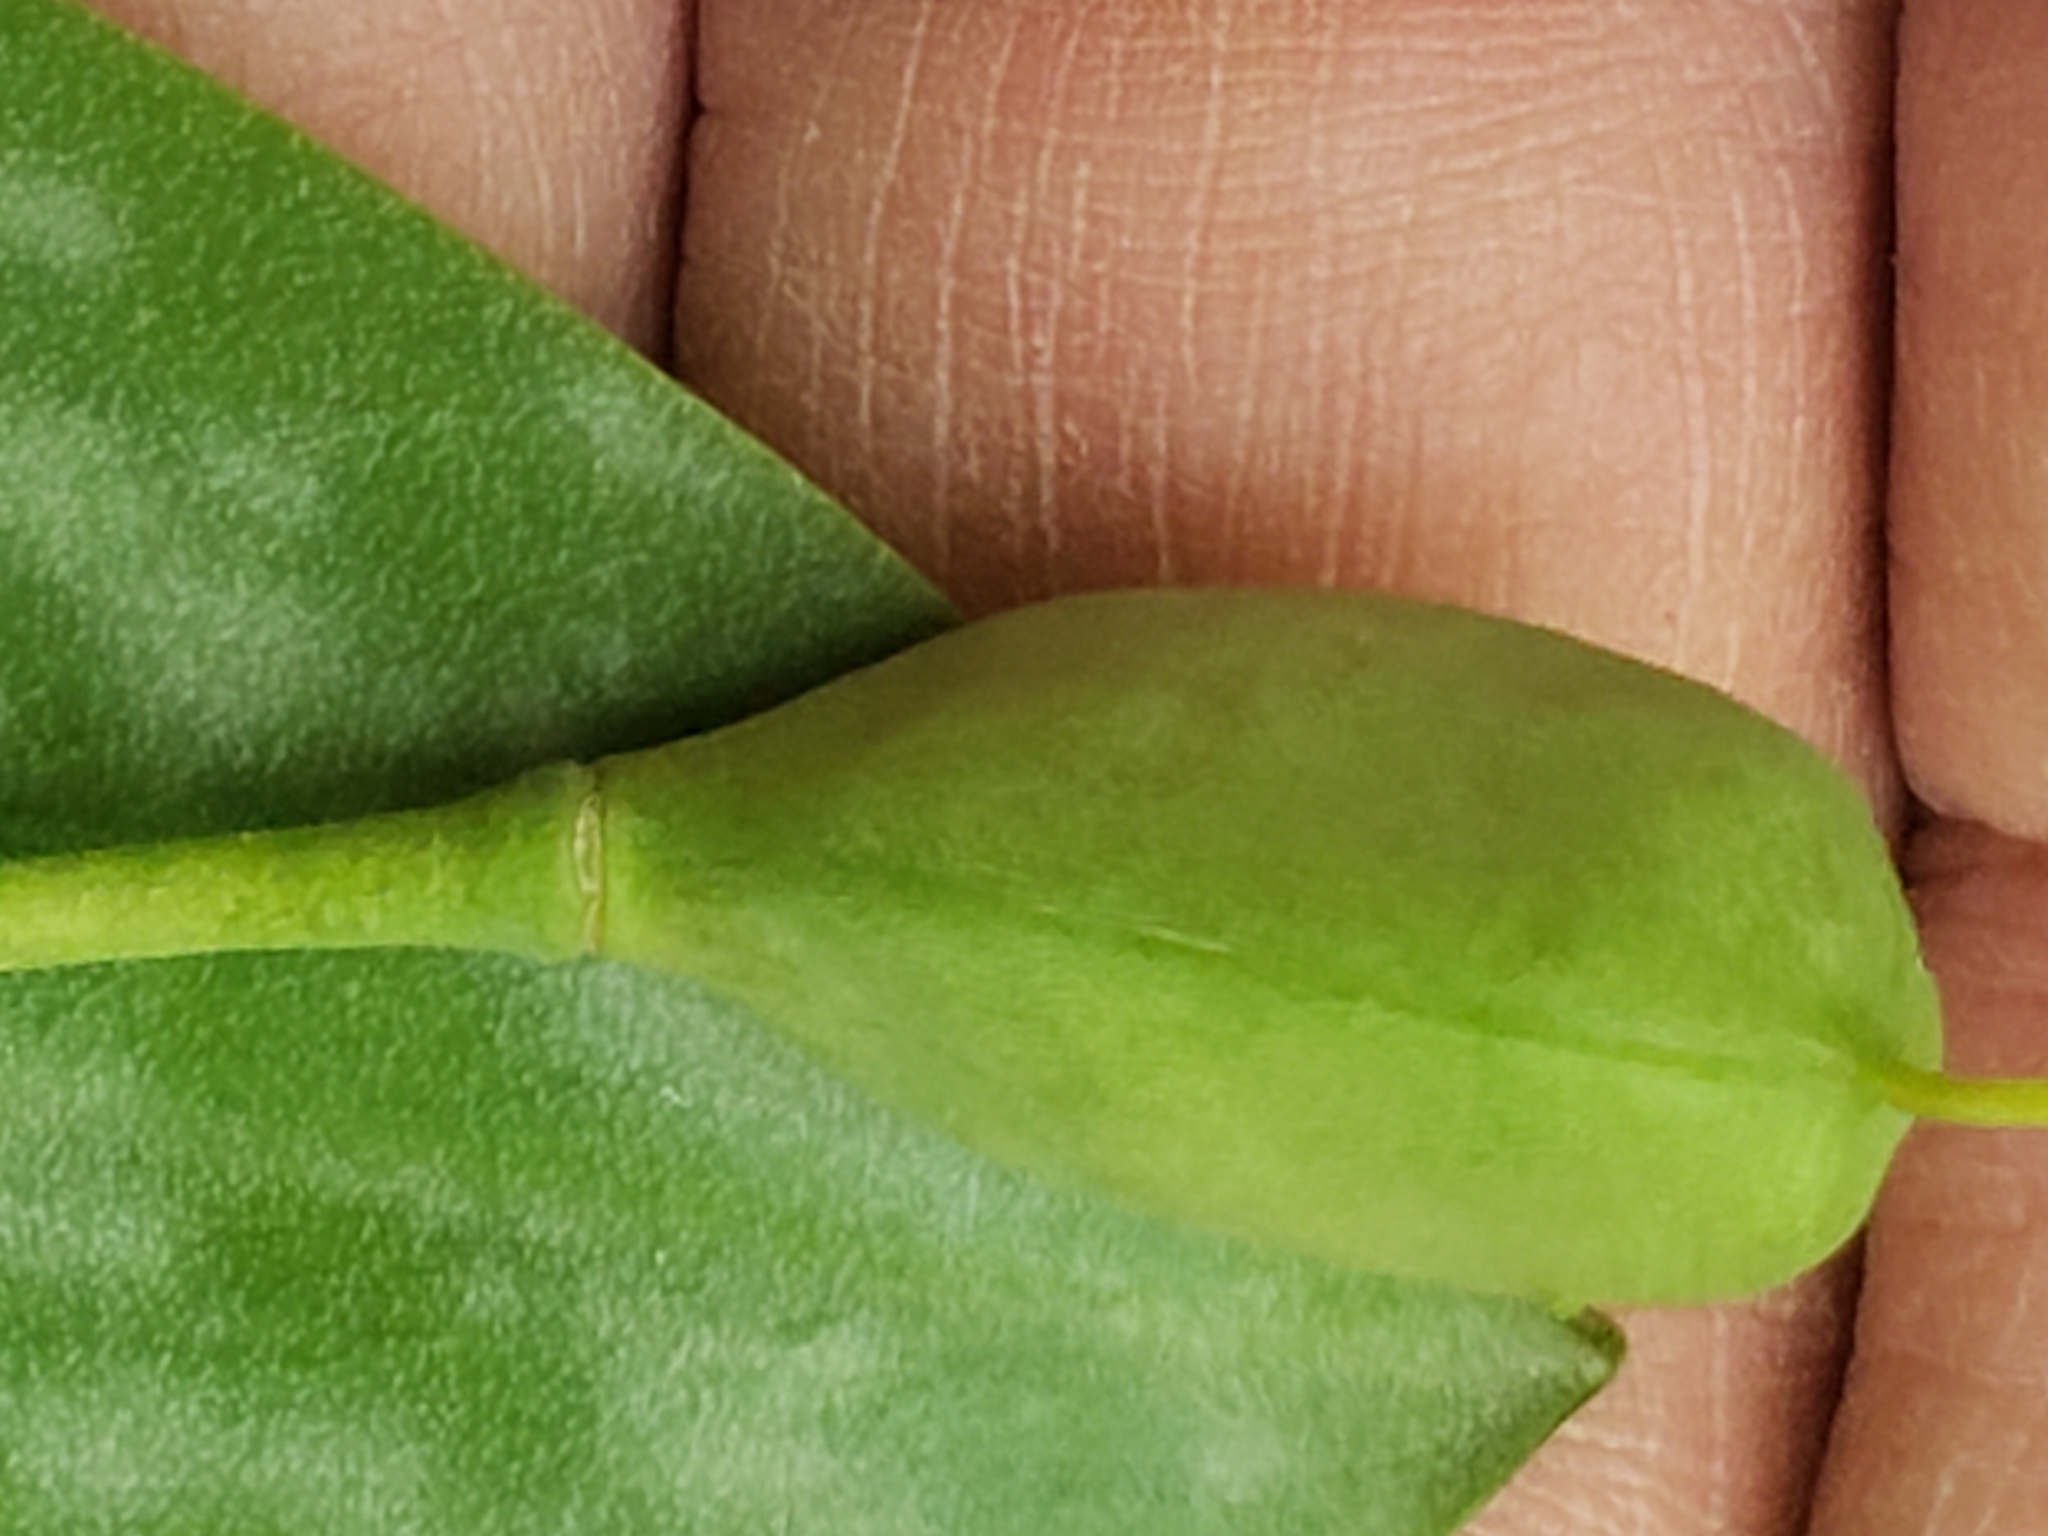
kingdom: Plantae
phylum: Tracheophyta
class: Liliopsida
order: Liliales
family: Liliaceae
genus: Erythronium
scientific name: Erythronium americanum
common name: Yellow adder's-tongue
